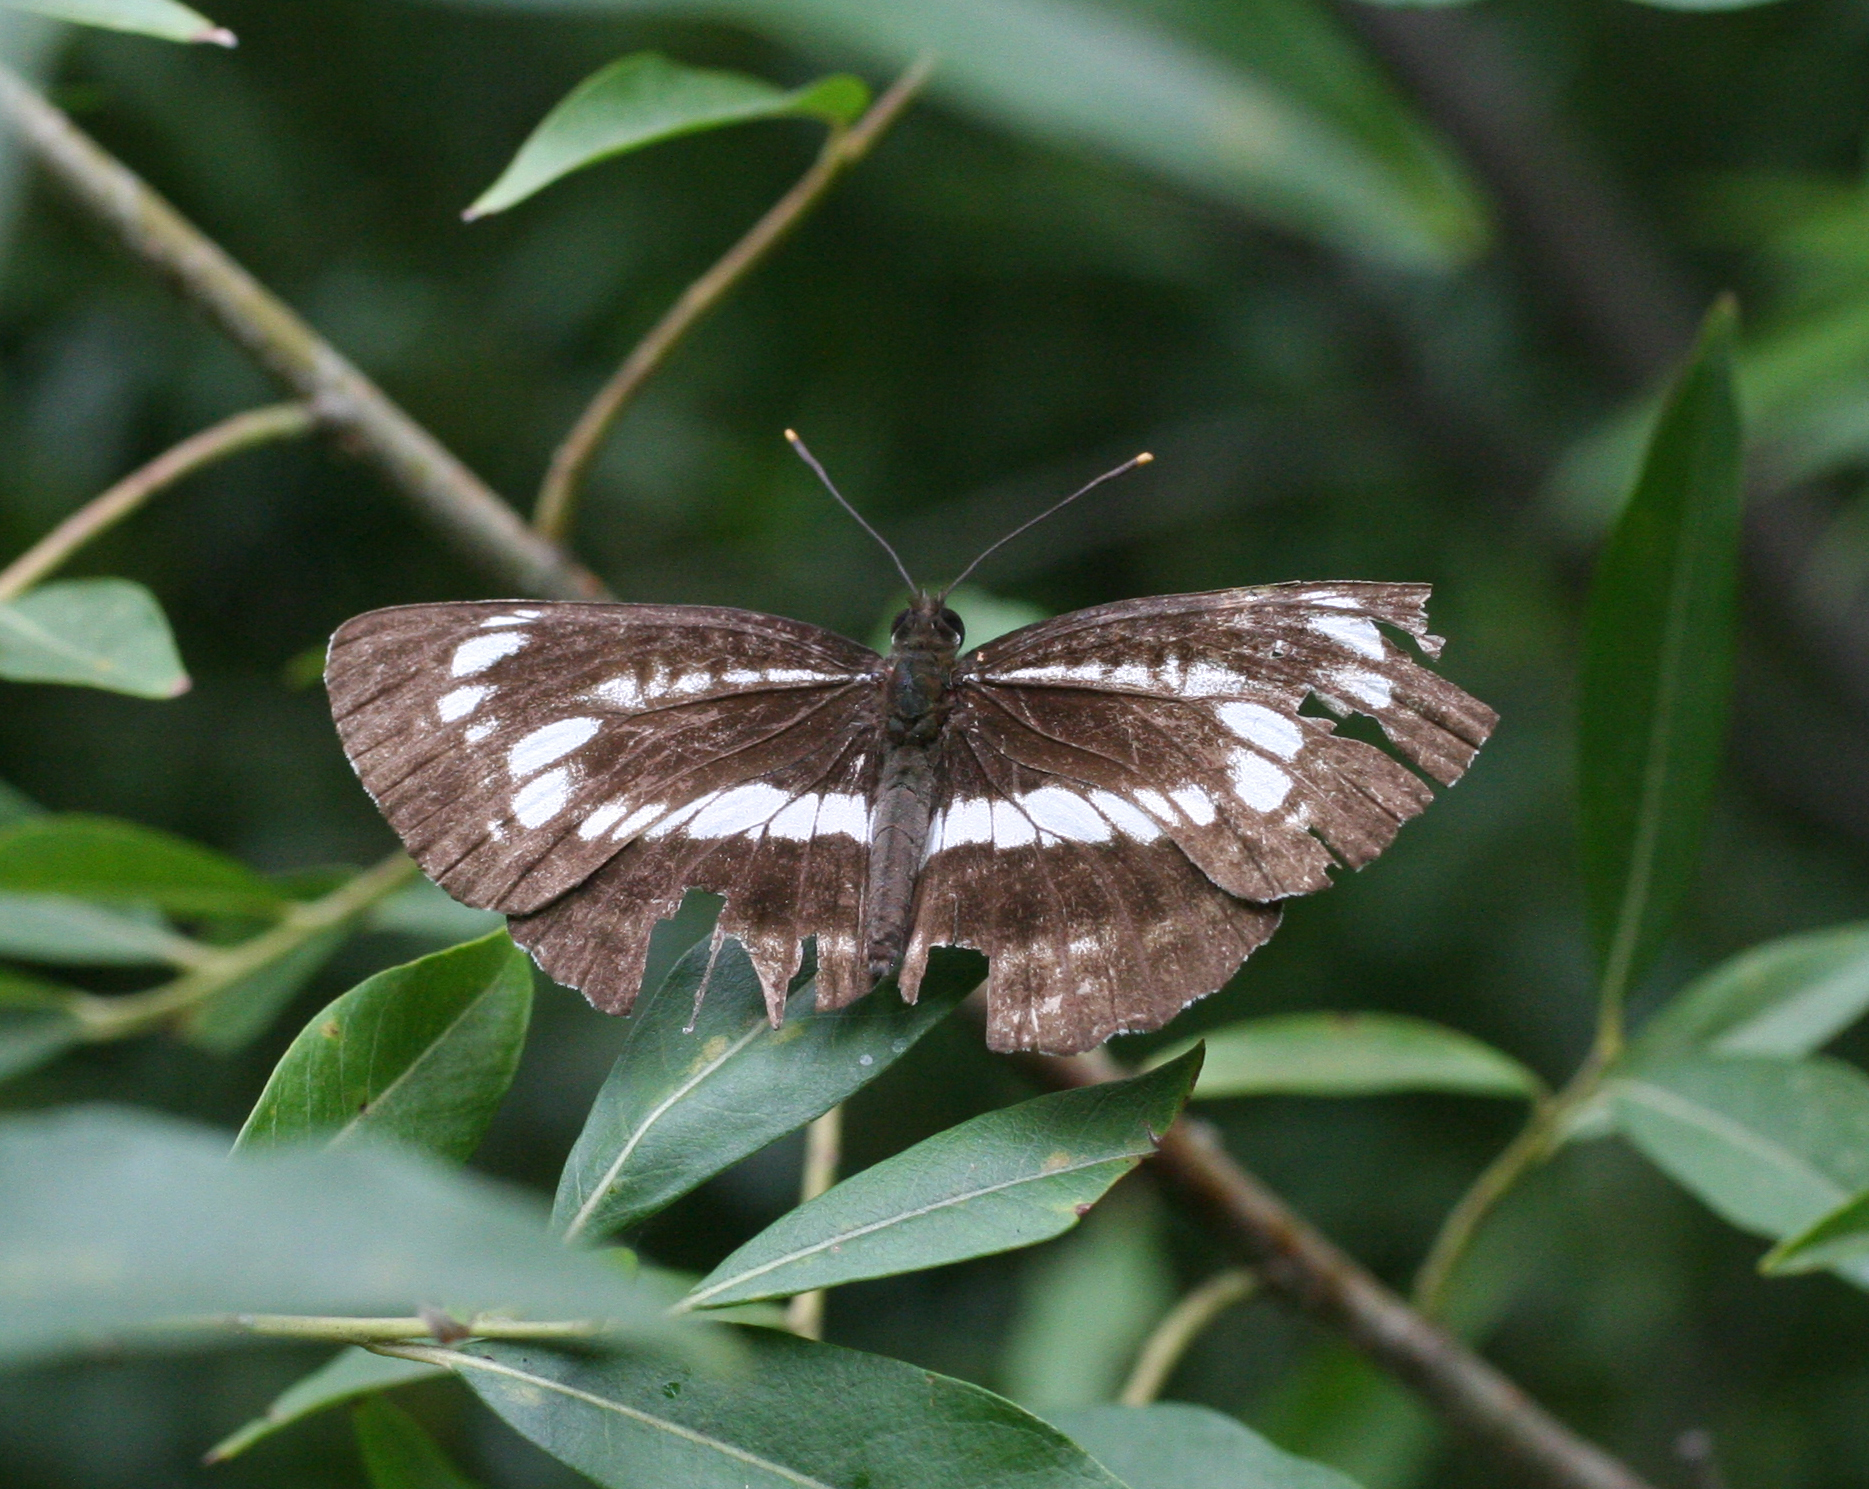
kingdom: Animalia
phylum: Arthropoda
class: Insecta
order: Lepidoptera
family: Nymphalidae
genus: Neptis
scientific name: Neptis pryeri
